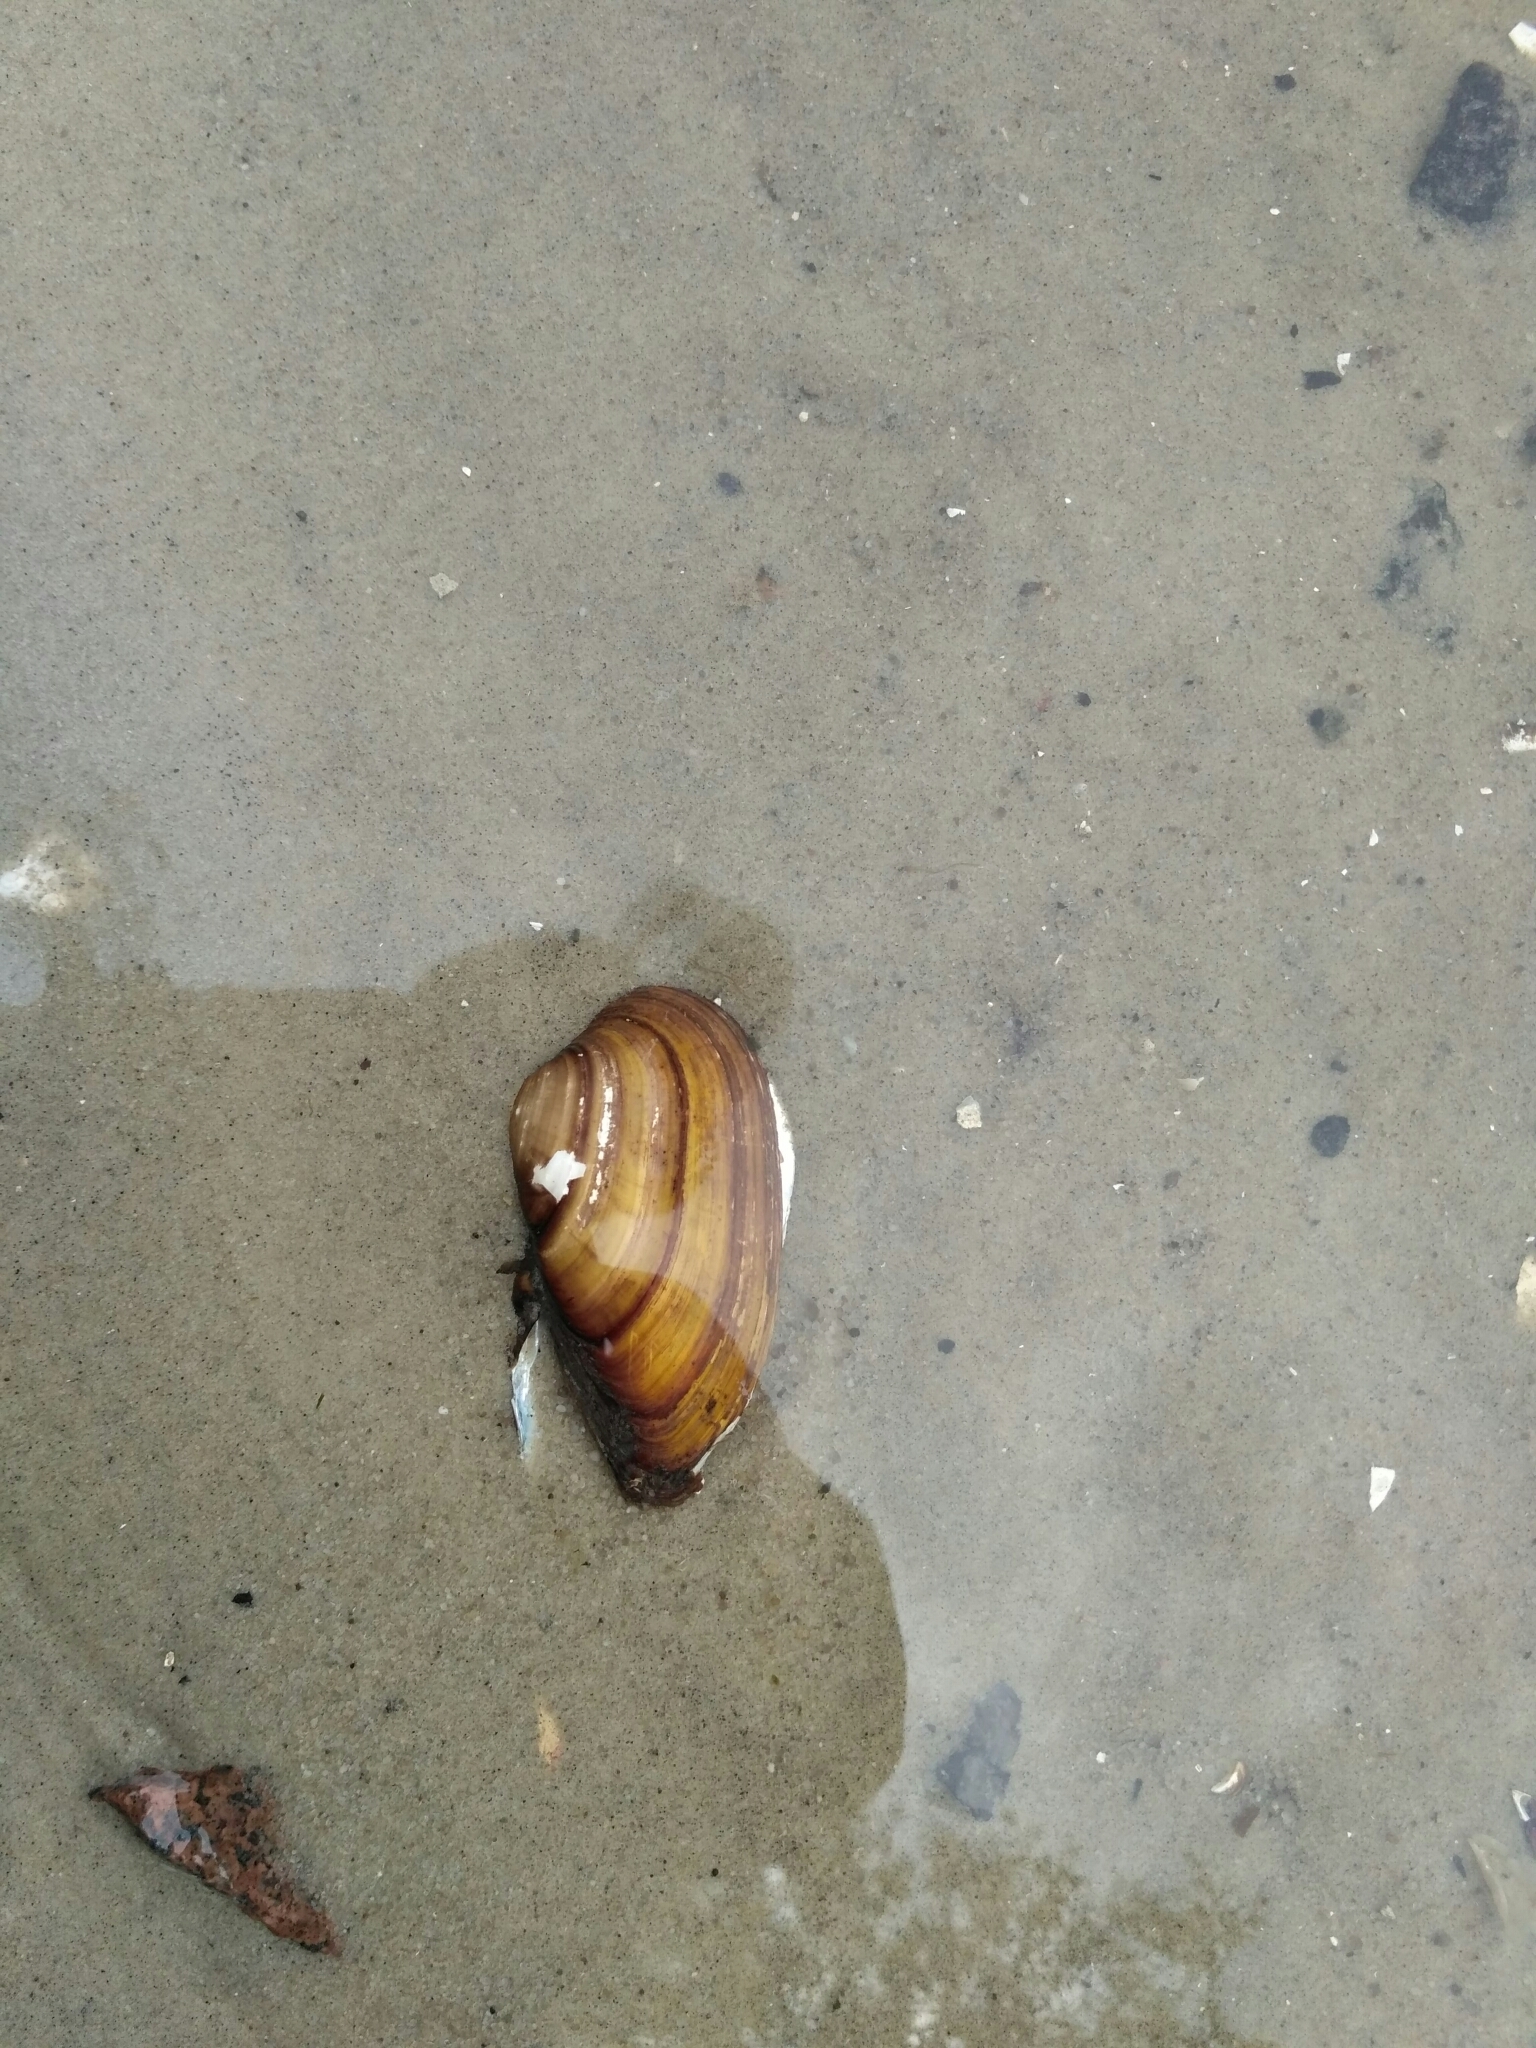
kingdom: Animalia
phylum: Mollusca
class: Bivalvia
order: Unionida
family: Unionidae
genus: Unio
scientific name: Unio tumidus
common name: Swollen river mussel
